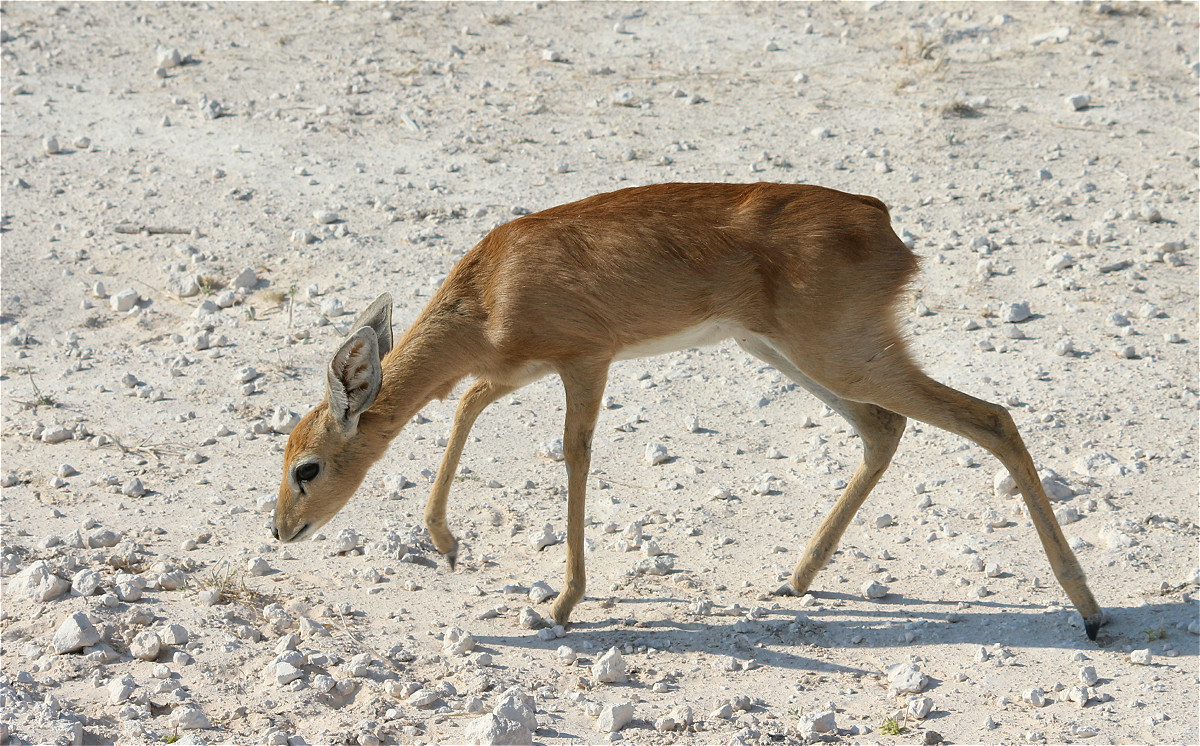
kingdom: Animalia
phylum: Chordata
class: Mammalia
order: Artiodactyla
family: Bovidae
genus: Raphicerus
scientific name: Raphicerus campestris
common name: Steenbok
